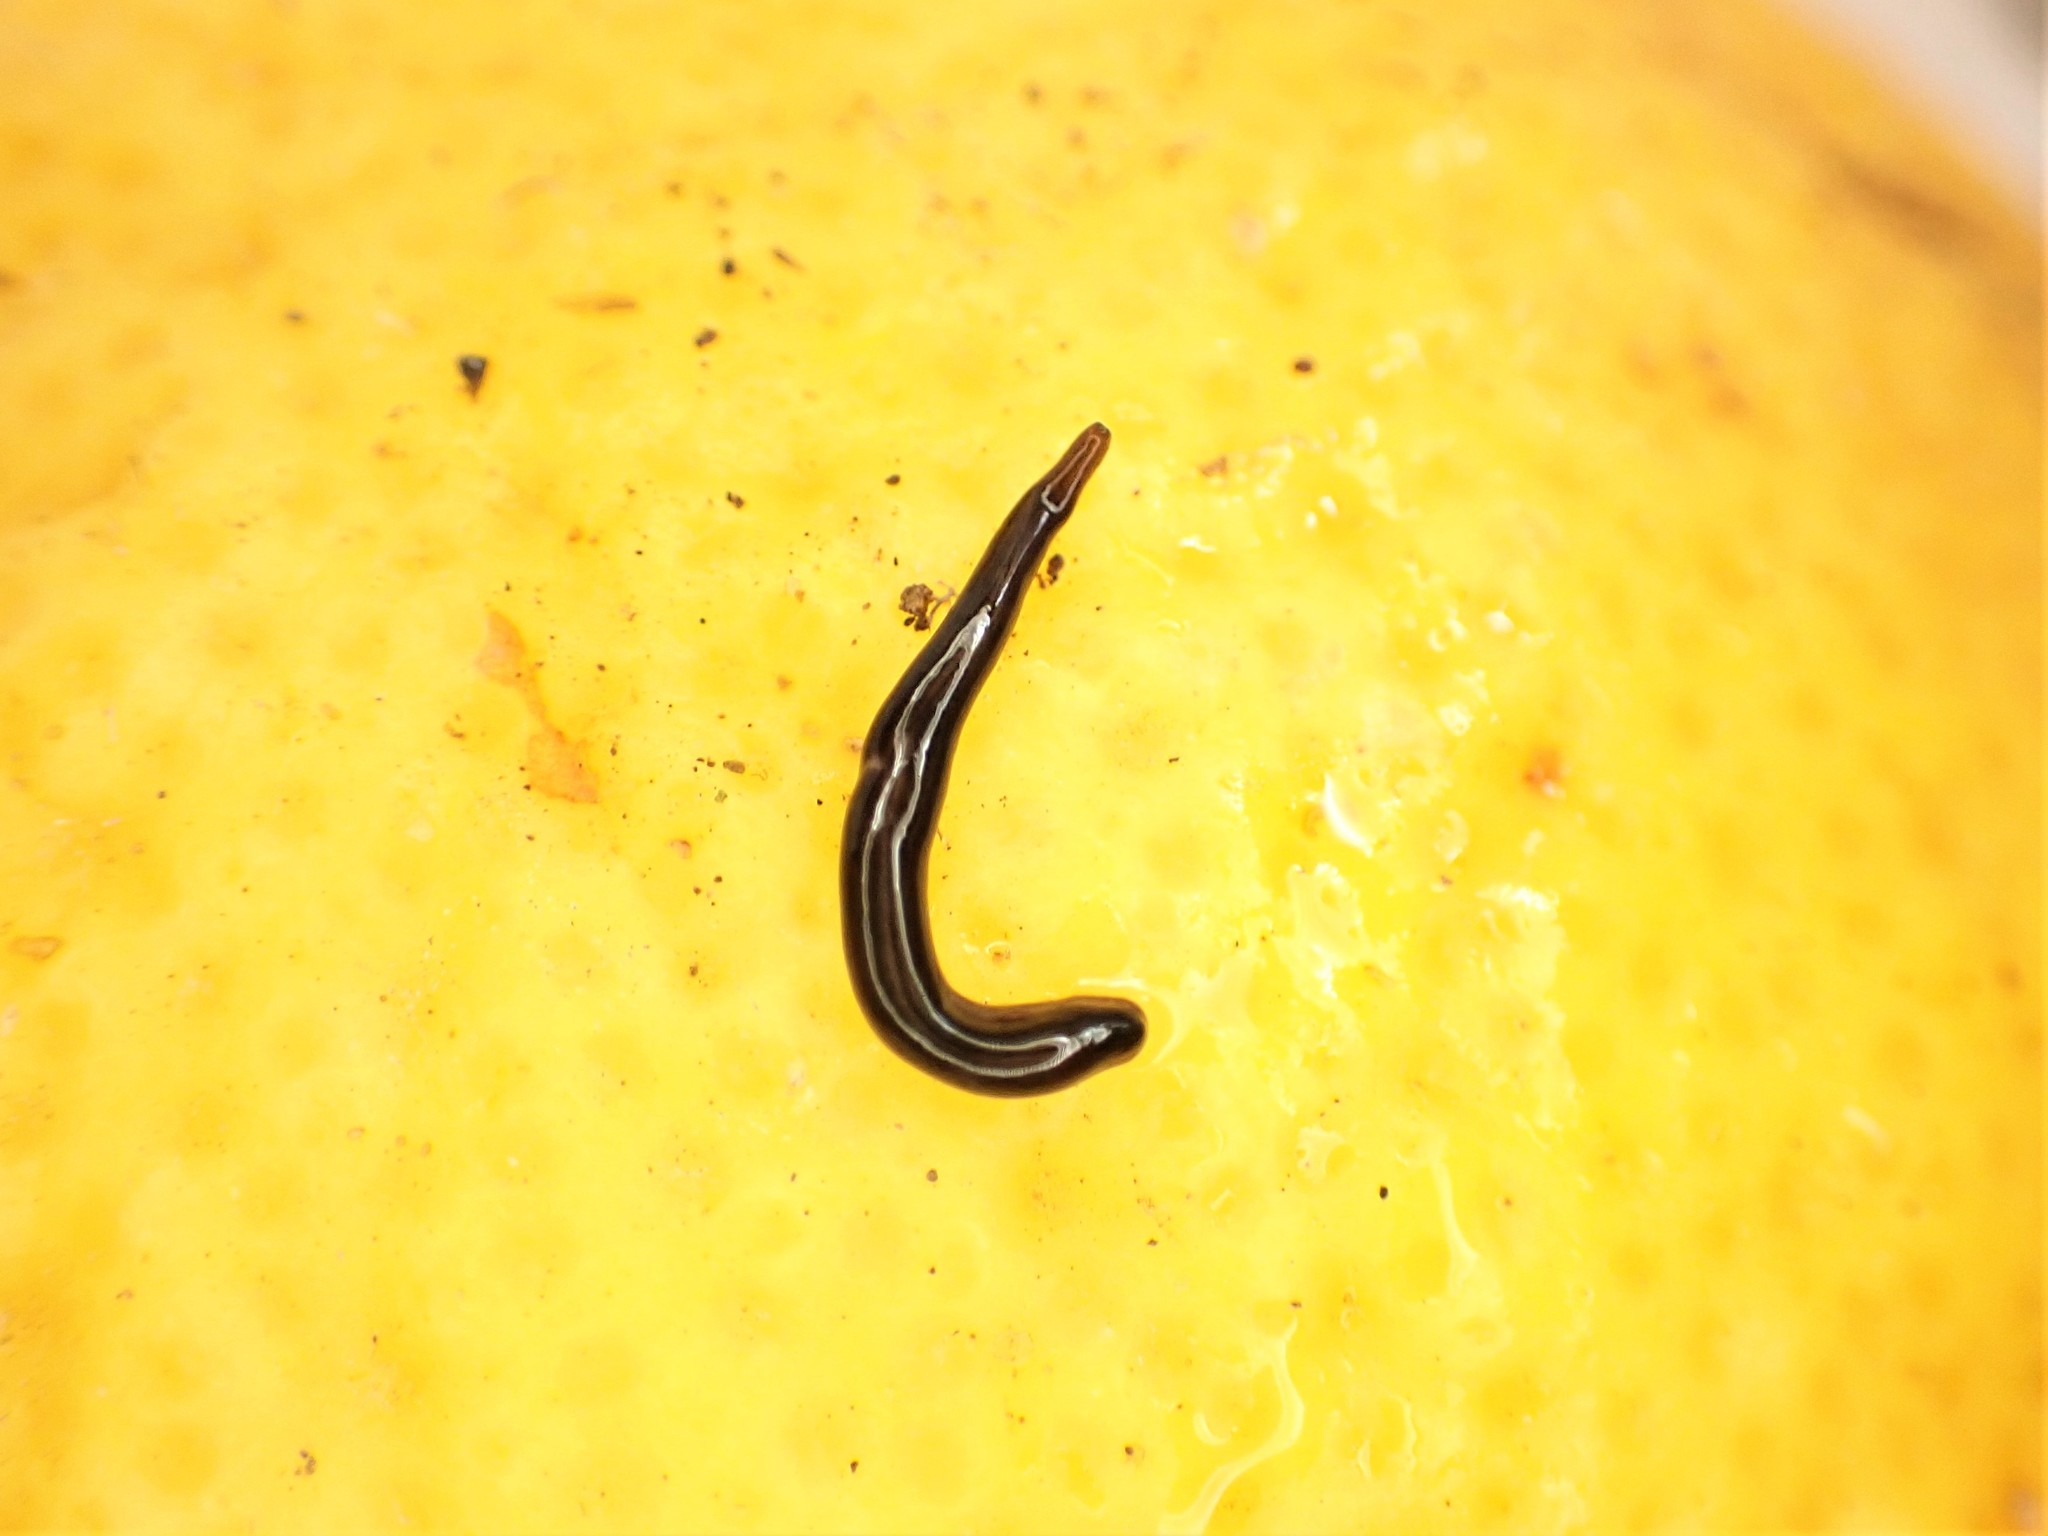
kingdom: Animalia
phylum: Platyhelminthes
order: Tricladida
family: Geoplanidae
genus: Parakontikia
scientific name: Parakontikia ventrolineata
